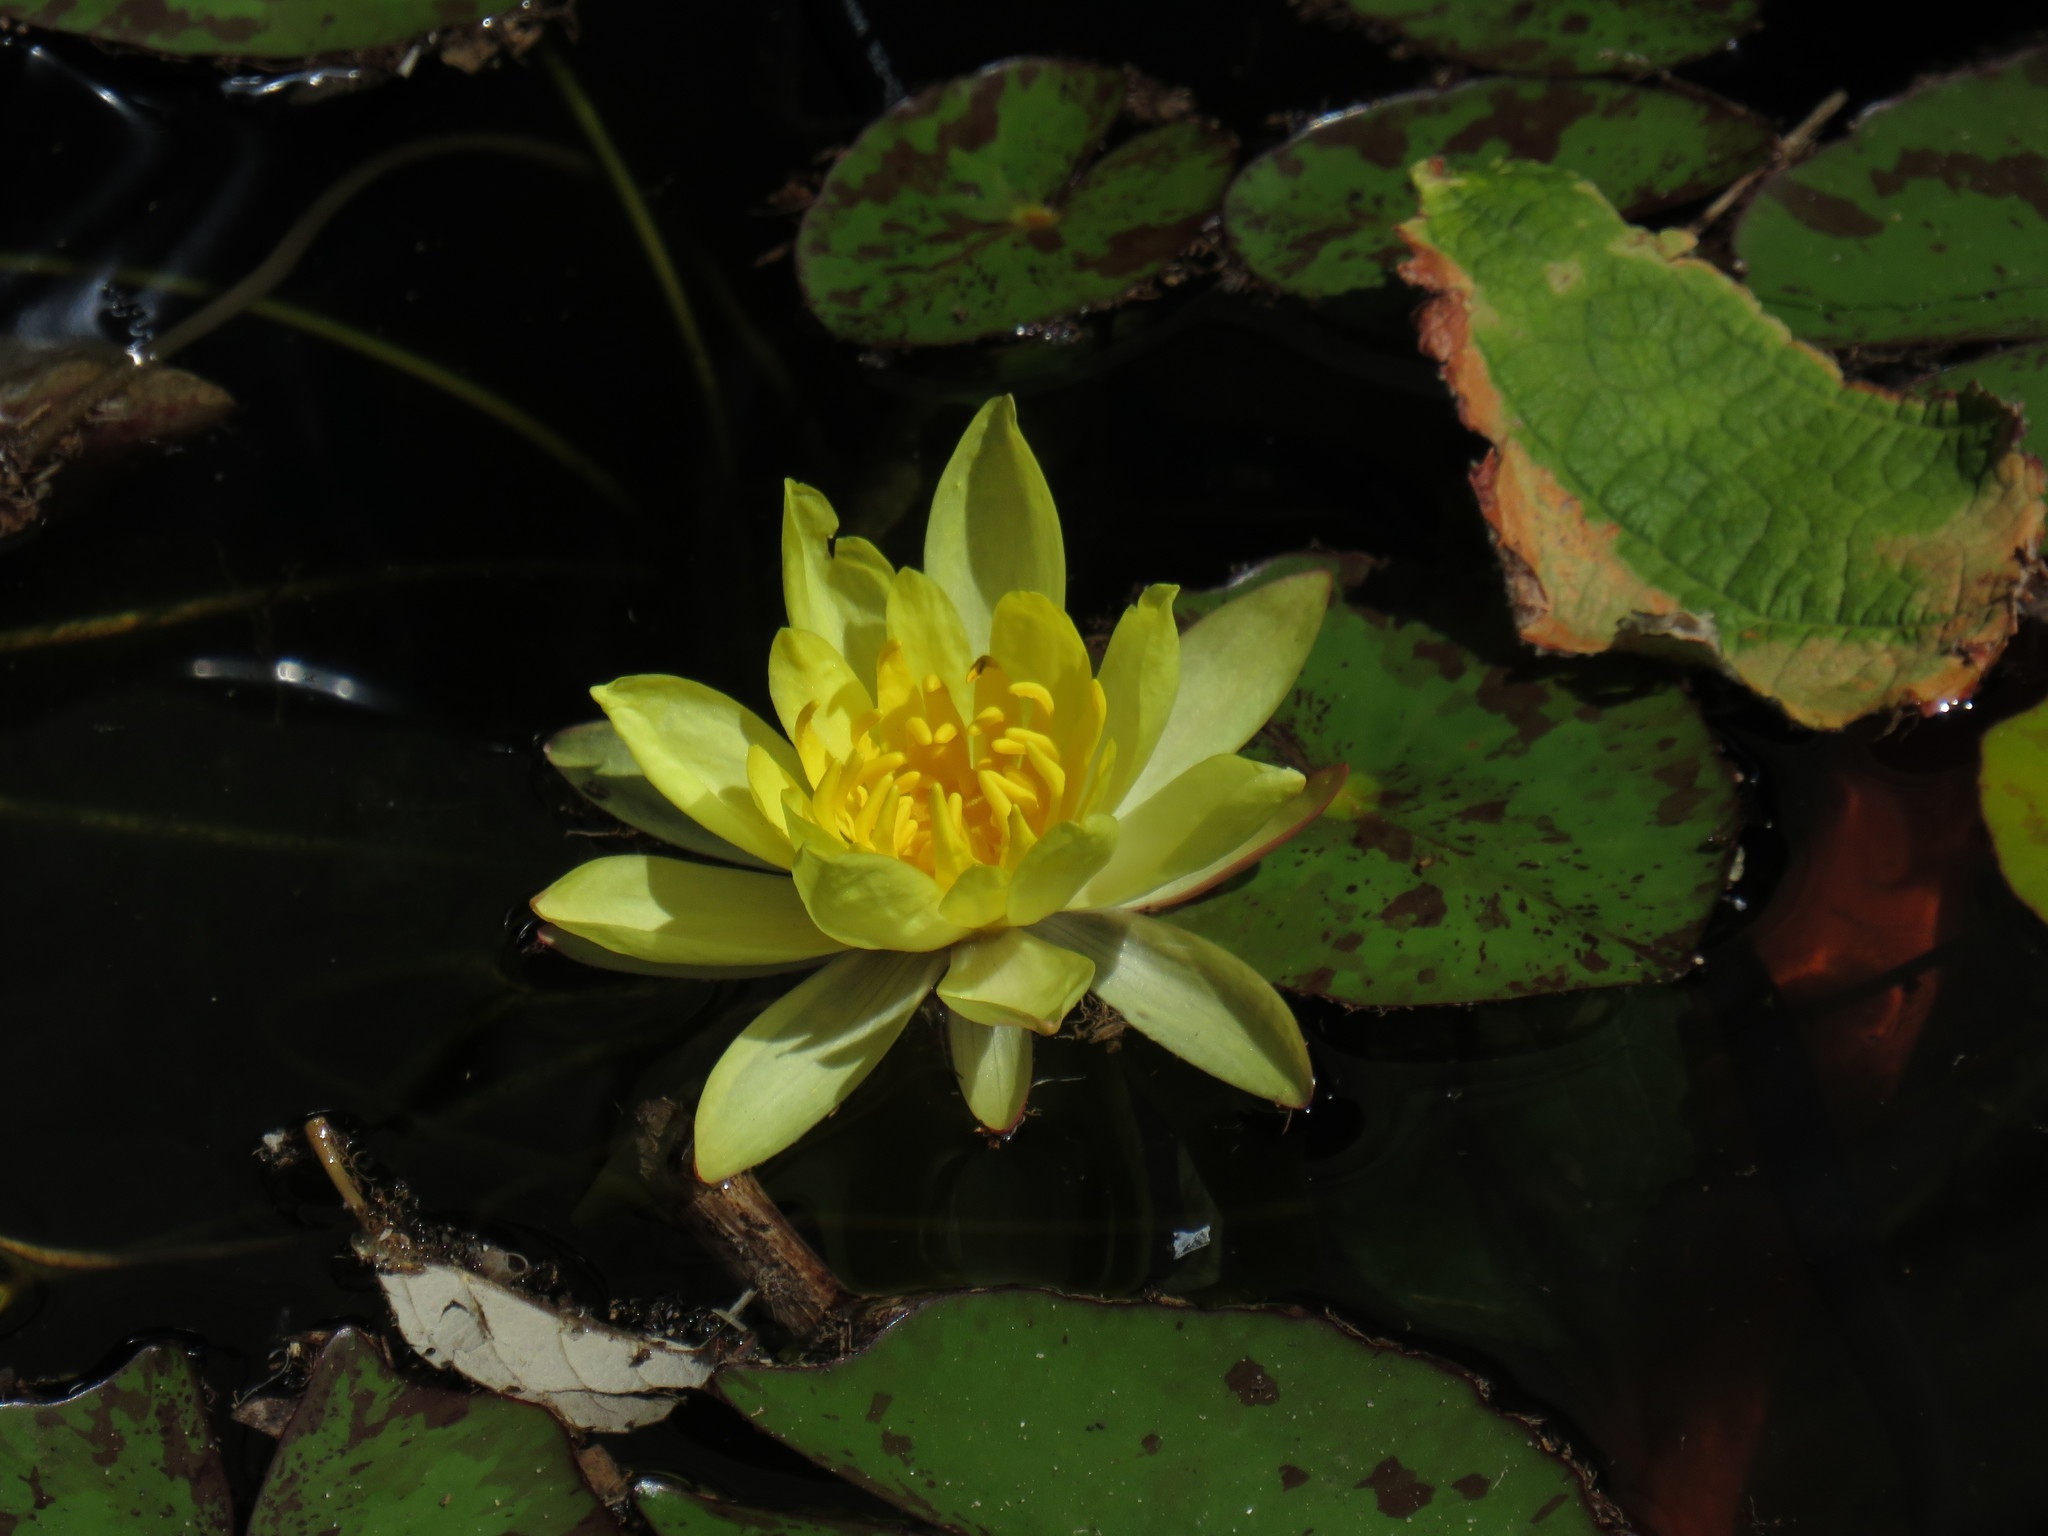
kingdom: Plantae
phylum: Tracheophyta
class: Magnoliopsida
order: Nymphaeales
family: Nymphaeaceae
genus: Nymphaea
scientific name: Nymphaea mexicana
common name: Banana water-lily
